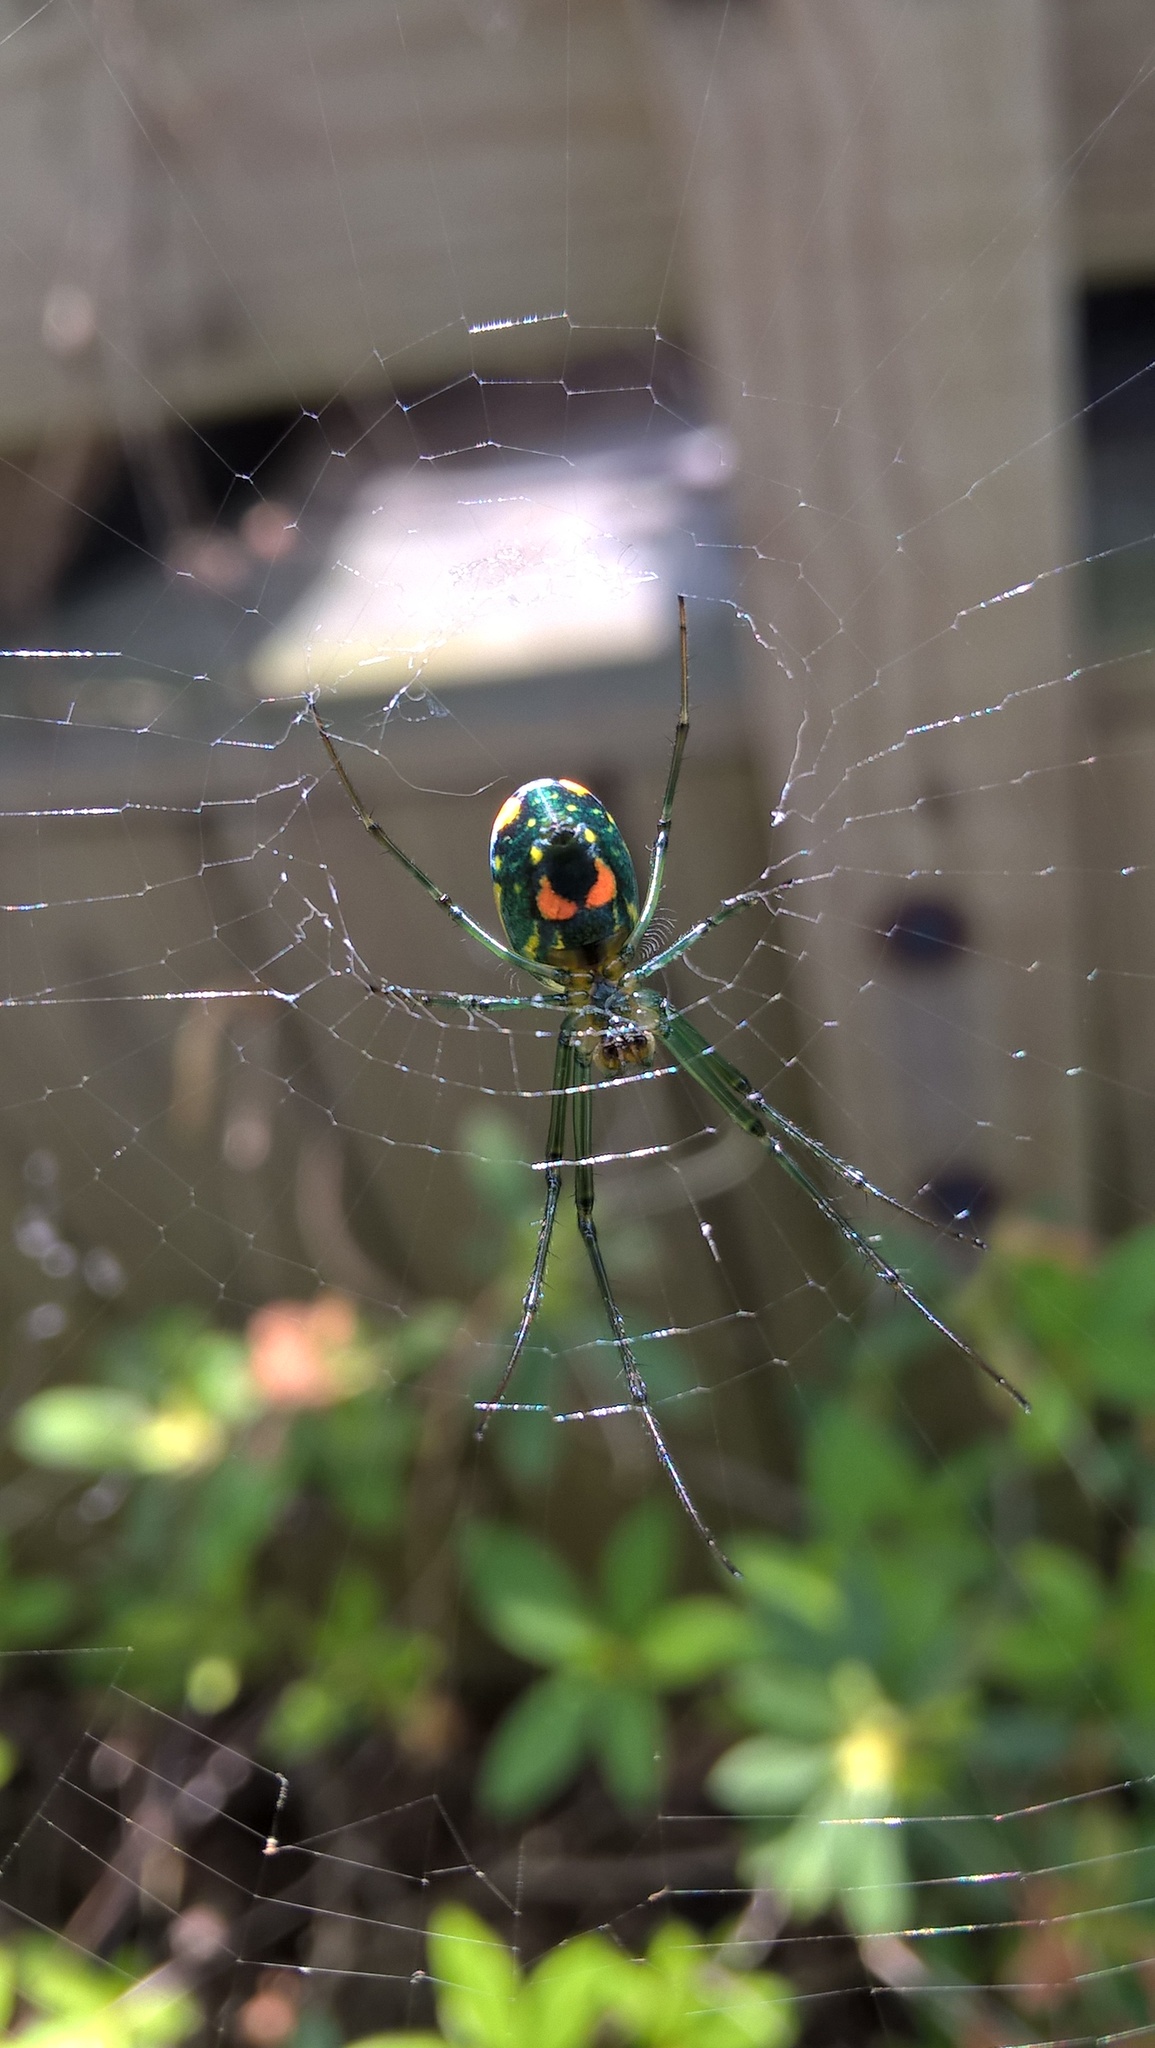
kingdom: Animalia
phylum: Arthropoda
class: Arachnida
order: Araneae
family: Tetragnathidae
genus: Leucauge
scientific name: Leucauge argyrobapta
